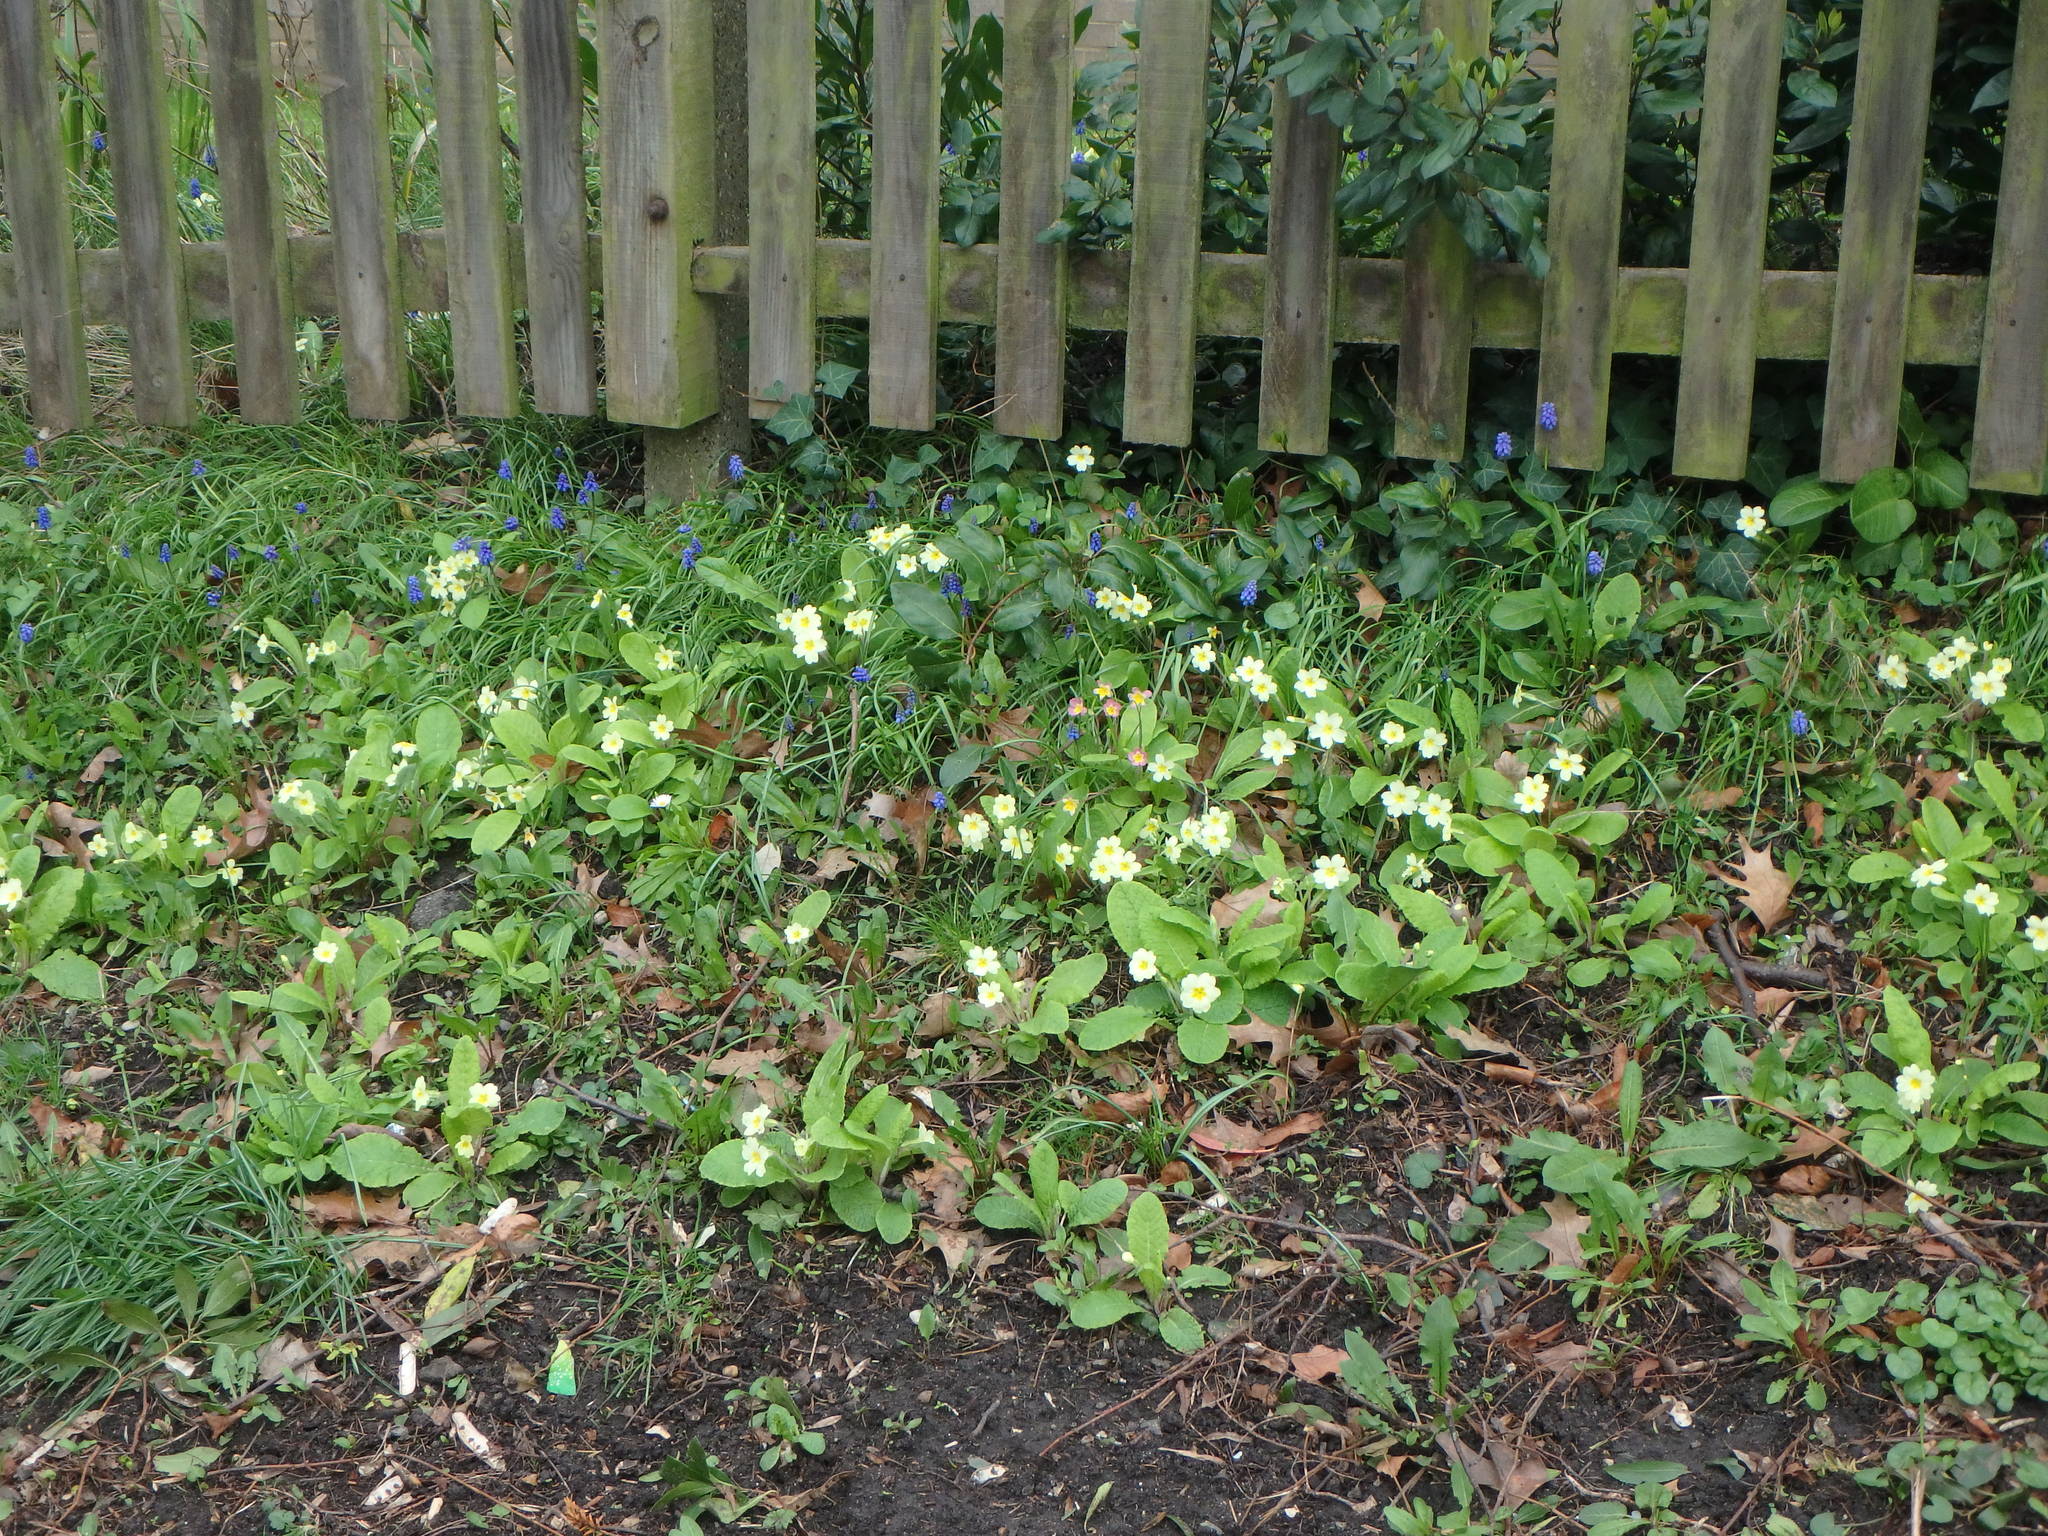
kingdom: Plantae
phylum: Tracheophyta
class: Magnoliopsida
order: Ericales
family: Primulaceae
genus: Primula
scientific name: Primula vulgaris
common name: Primrose
